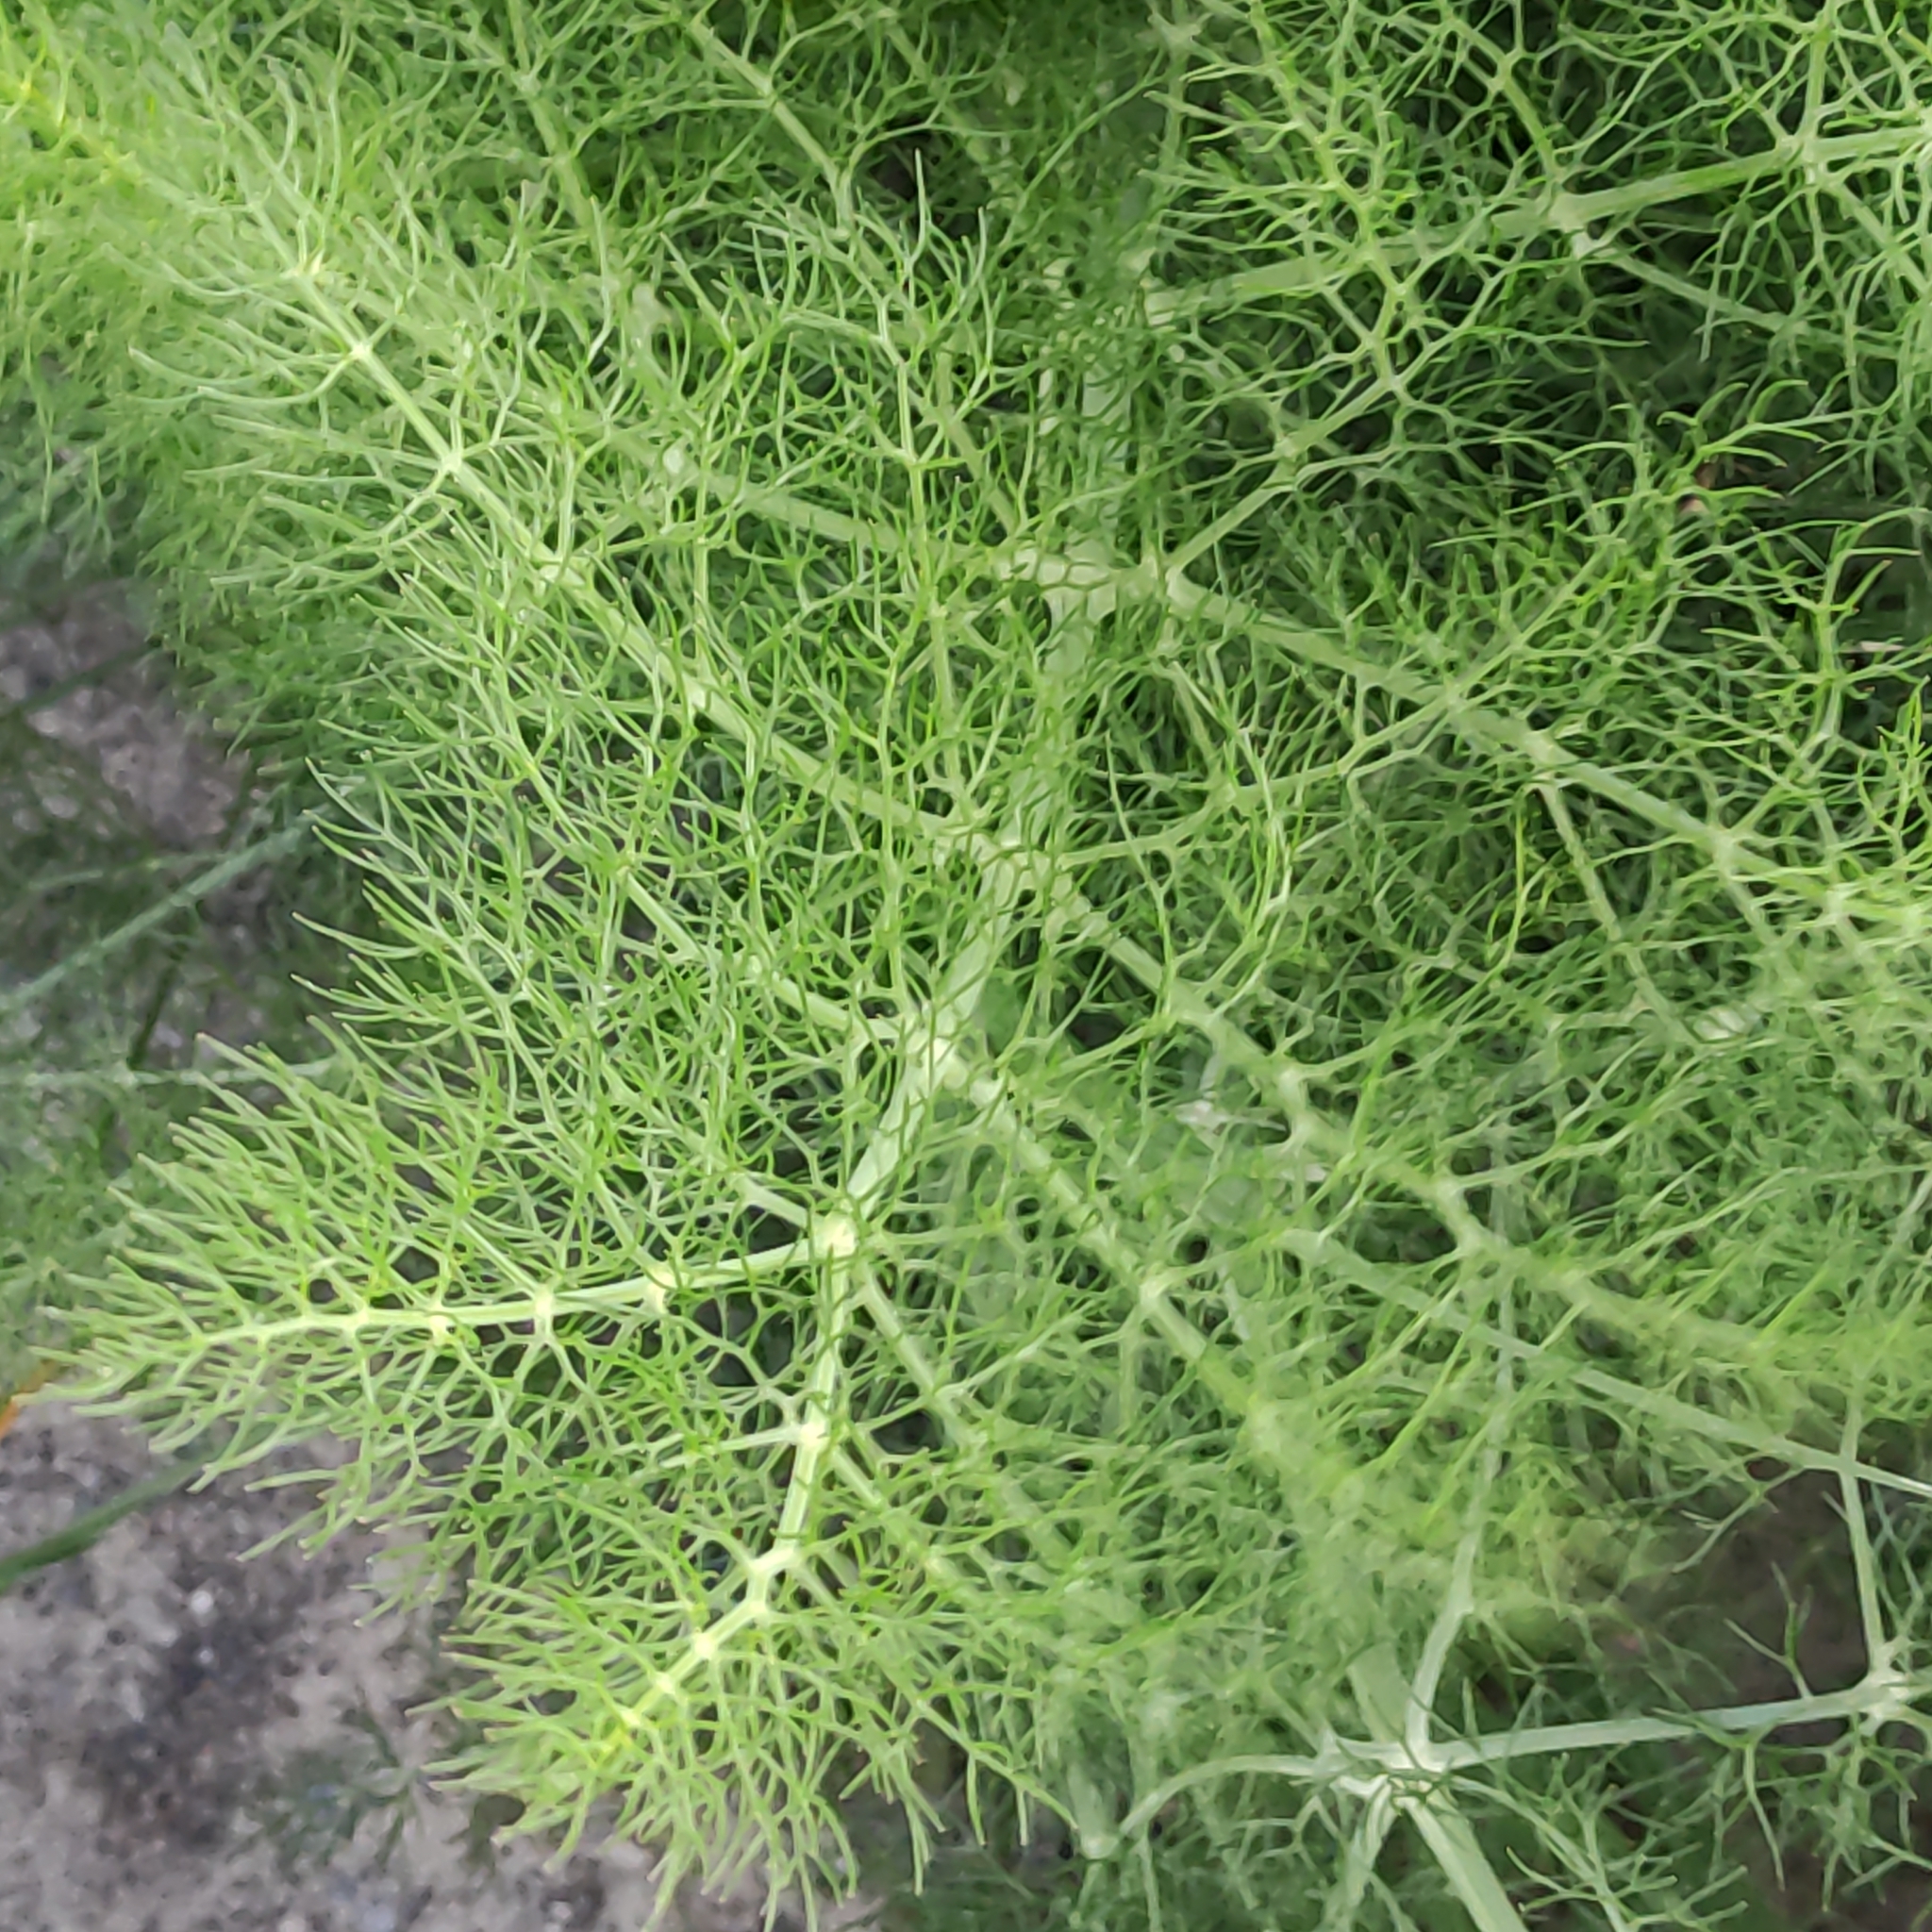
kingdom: Plantae
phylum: Tracheophyta
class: Magnoliopsida
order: Apiales
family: Apiaceae
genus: Foeniculum
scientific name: Foeniculum vulgare
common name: Fennel
